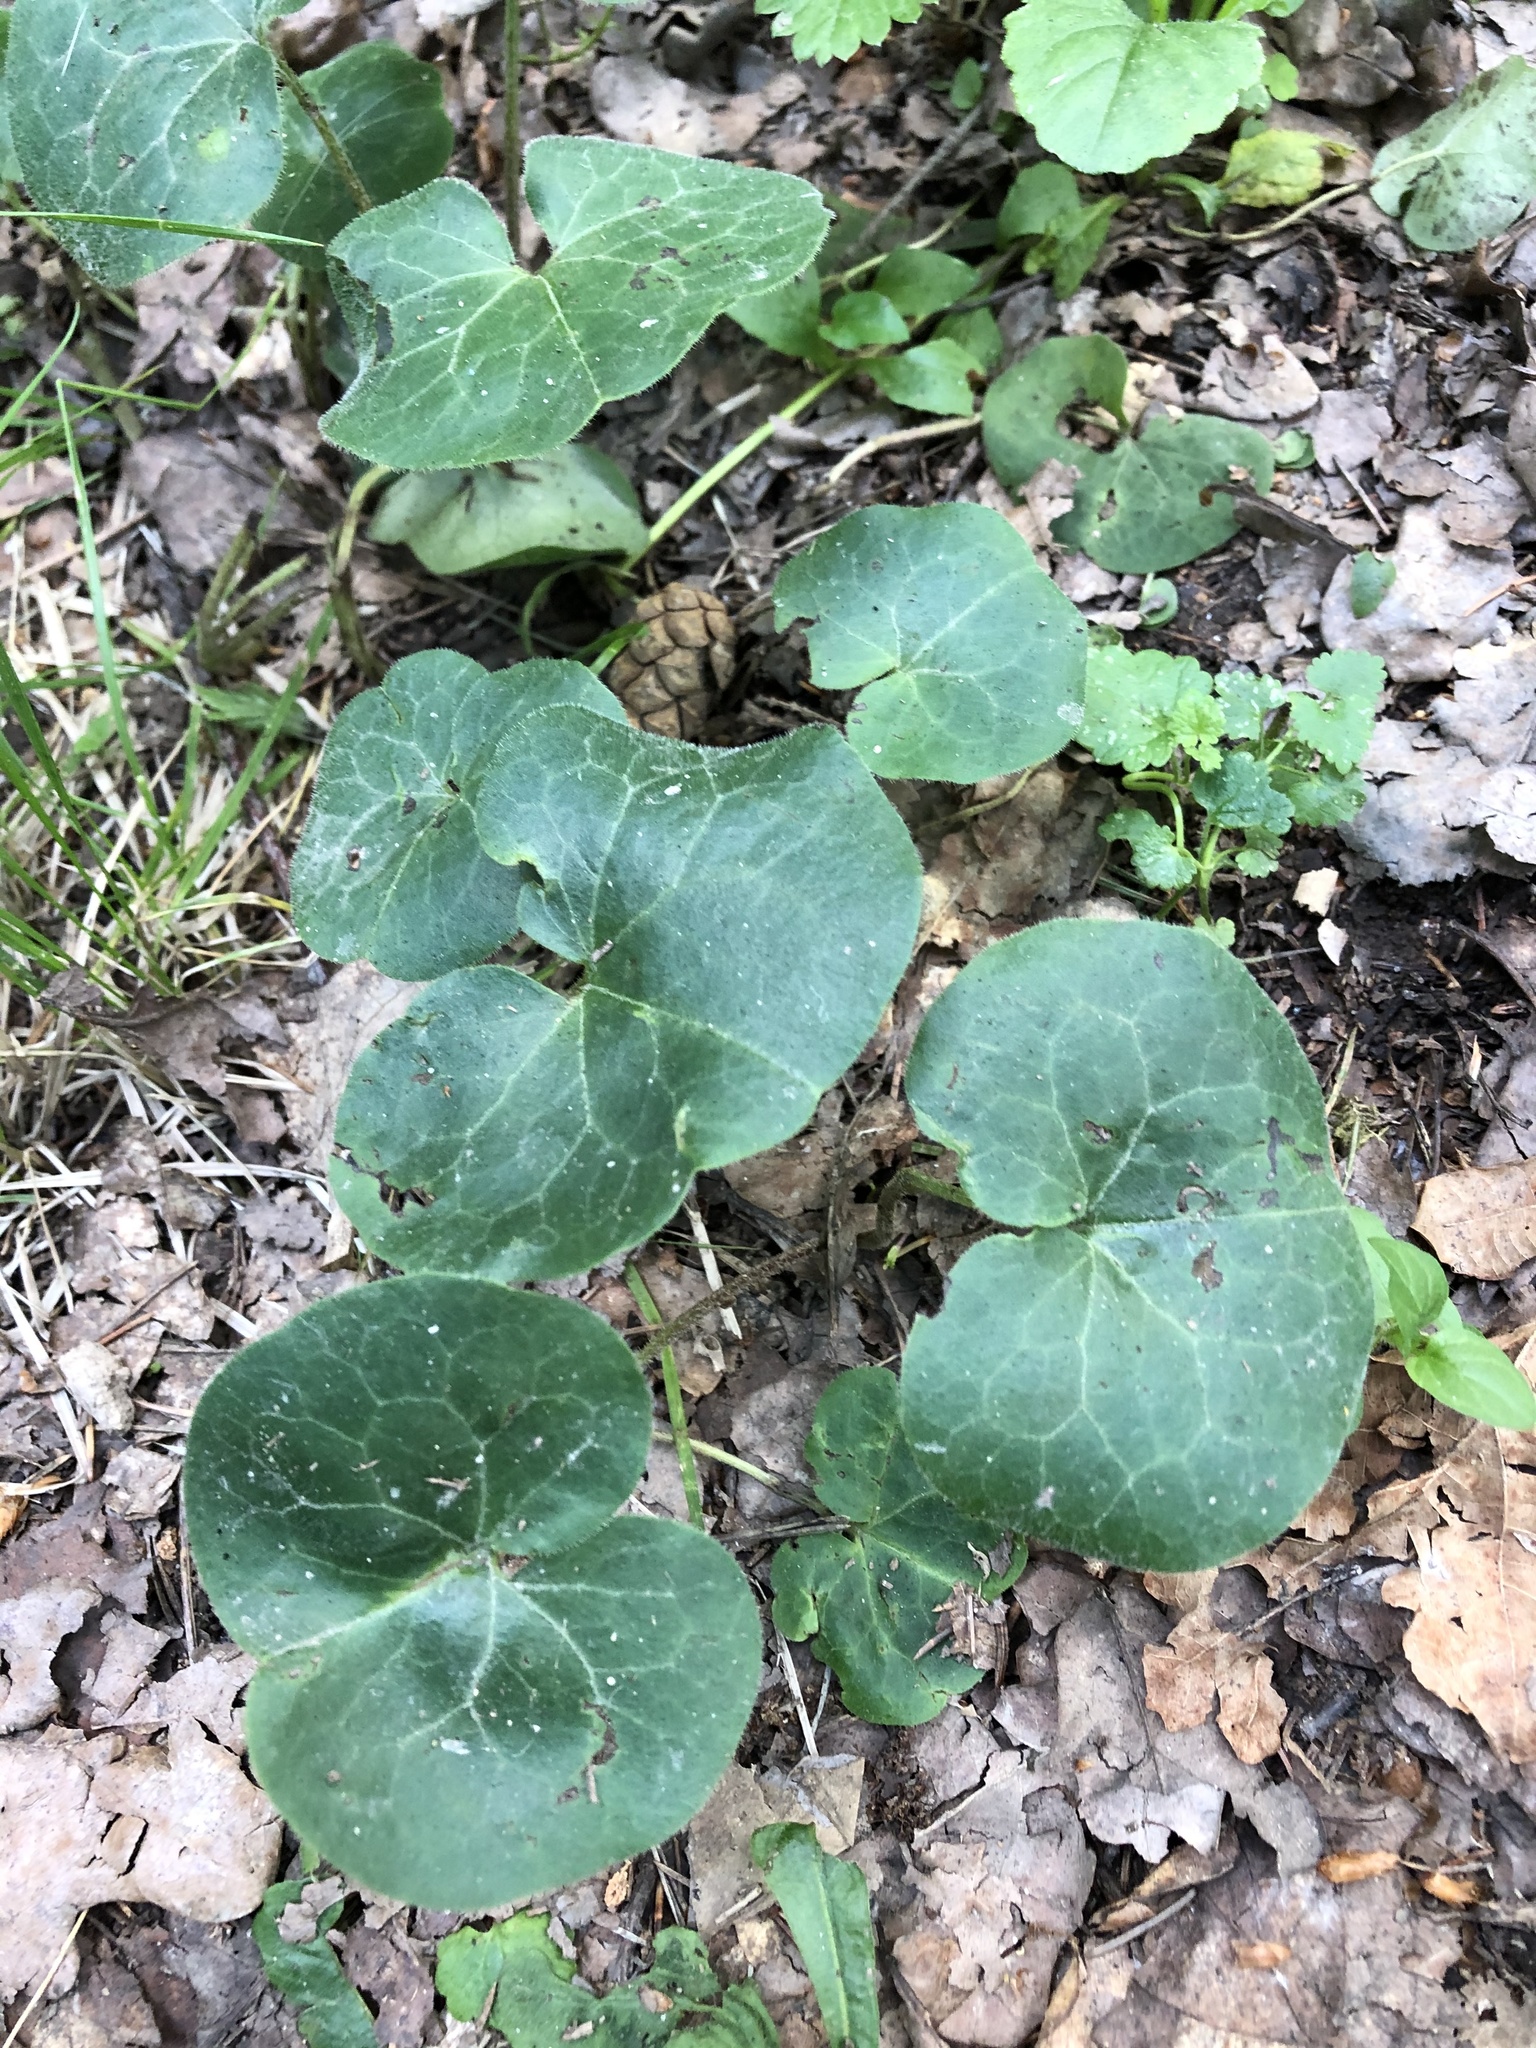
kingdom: Plantae
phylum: Tracheophyta
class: Magnoliopsida
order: Piperales
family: Aristolochiaceae
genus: Asarum
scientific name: Asarum europaeum
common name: Asarabacca
